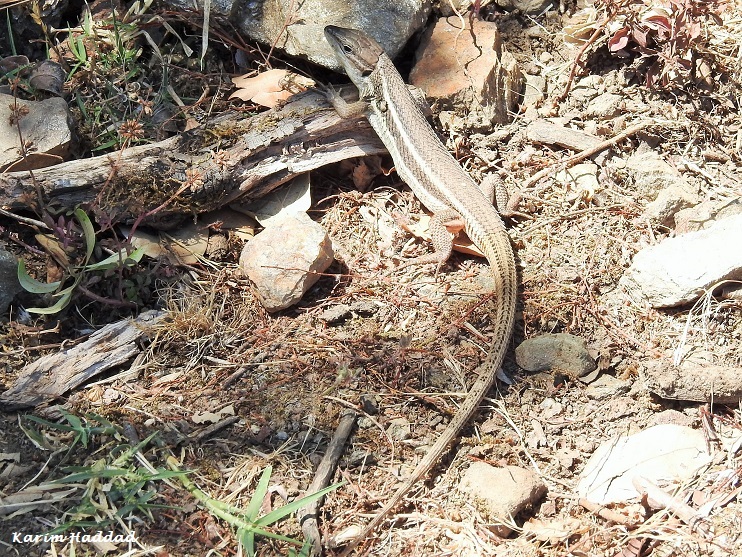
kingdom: Animalia
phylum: Chordata
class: Squamata
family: Lacertidae
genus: Psammodromus
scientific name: Psammodromus algirus
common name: Algerian psammodromus
